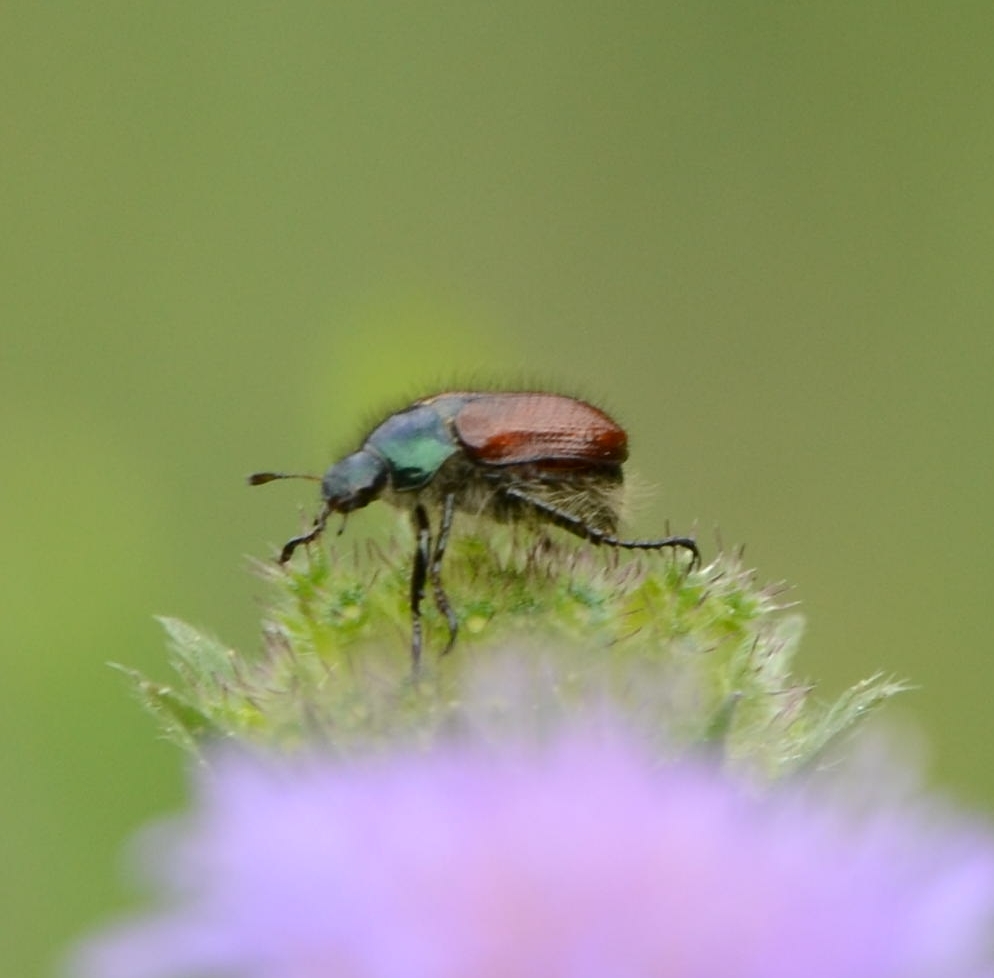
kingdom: Animalia
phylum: Arthropoda
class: Insecta
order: Coleoptera
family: Scarabaeidae
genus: Phyllopertha
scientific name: Phyllopertha horticola
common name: Garden chafer
